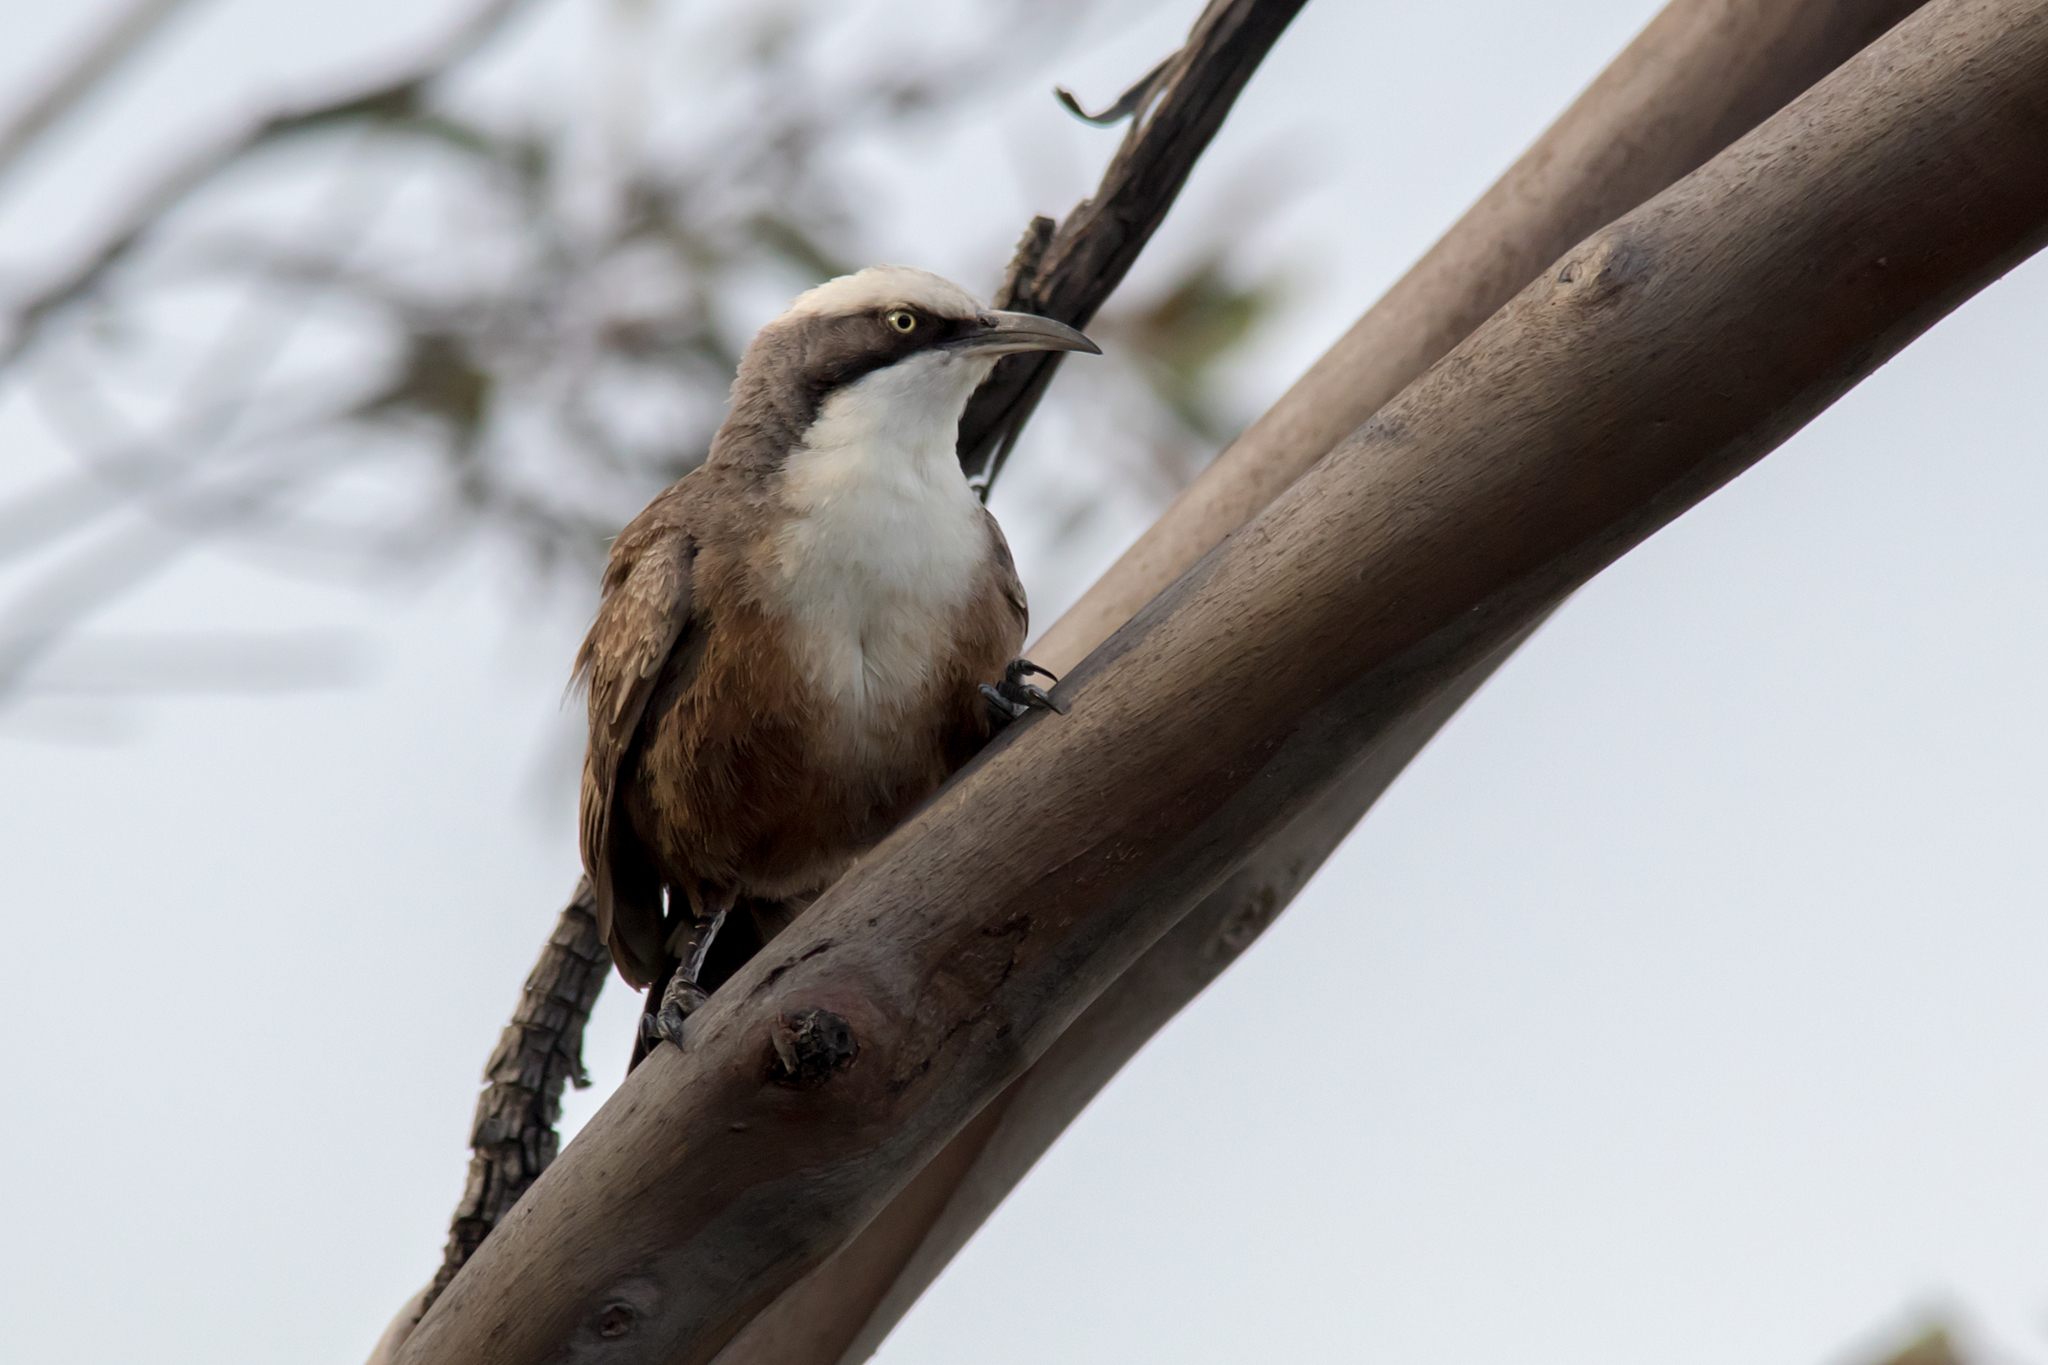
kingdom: Animalia
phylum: Chordata
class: Aves
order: Passeriformes
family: Pomatostomidae
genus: Pomatostomus
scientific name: Pomatostomus temporalis
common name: Grey-crowned babbler
